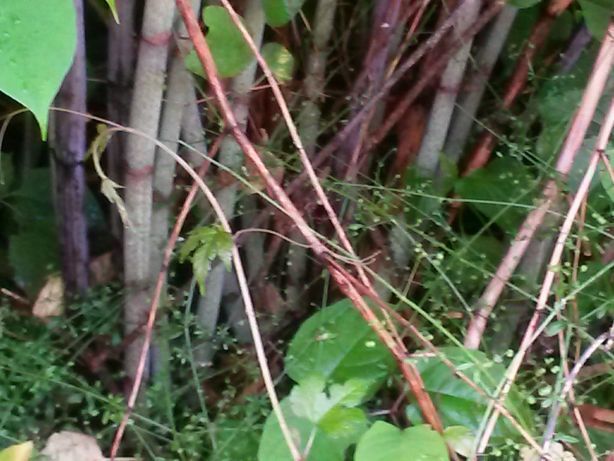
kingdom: Plantae
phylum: Tracheophyta
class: Magnoliopsida
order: Caryophyllales
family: Polygonaceae
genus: Reynoutria
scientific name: Reynoutria japonica
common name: Japanese knotweed
